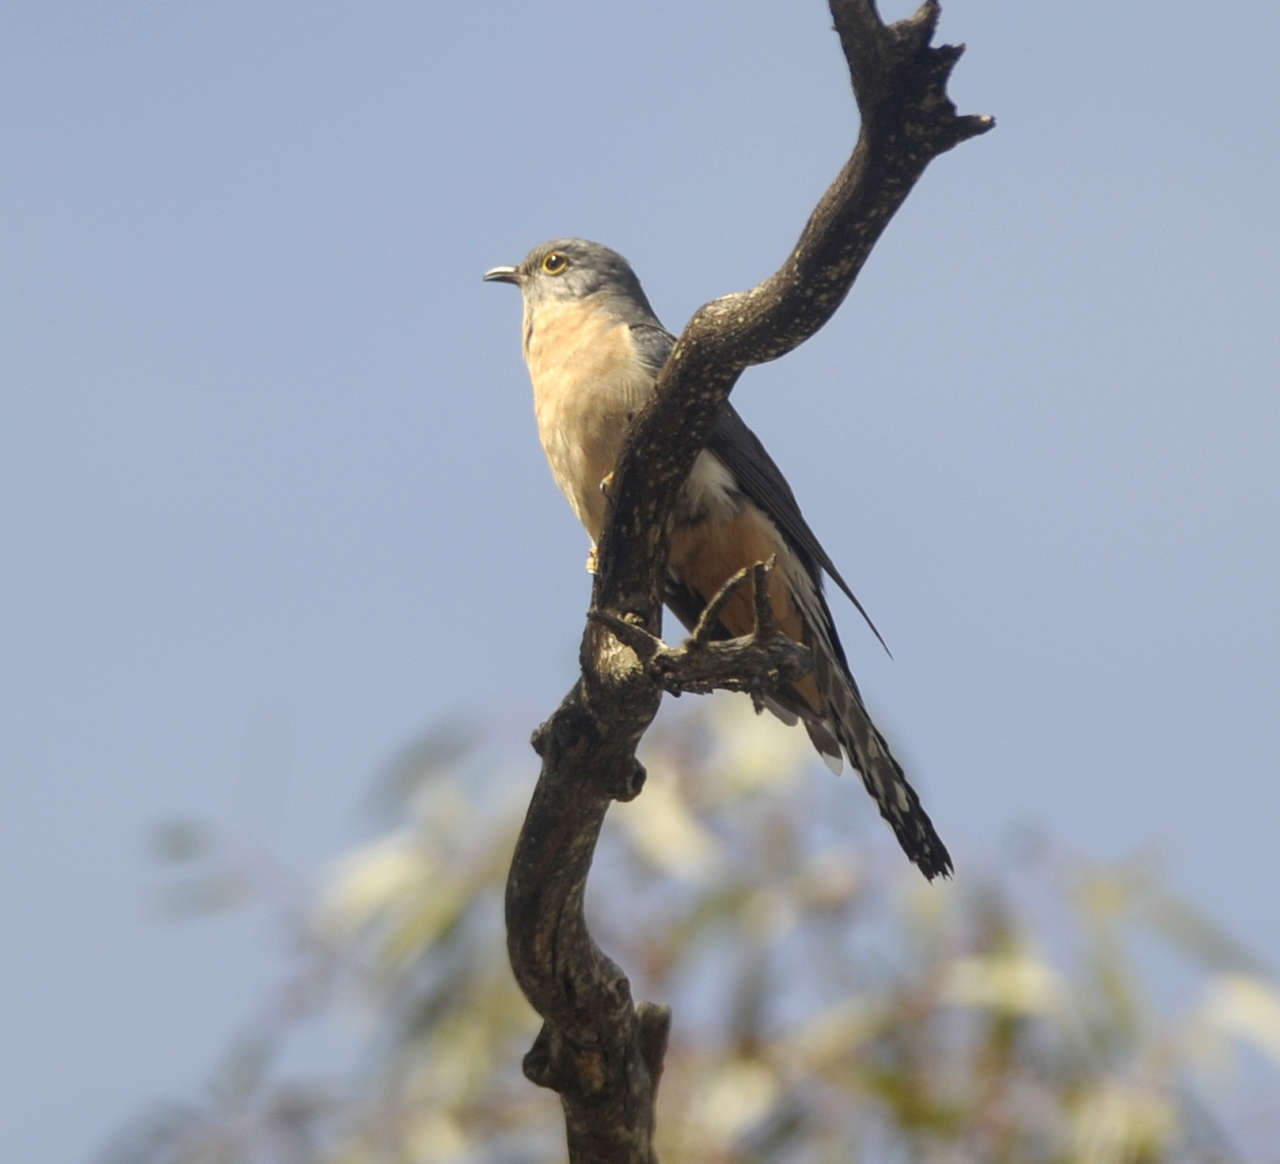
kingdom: Animalia
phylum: Chordata
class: Aves
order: Cuculiformes
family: Cuculidae
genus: Cacomantis
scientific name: Cacomantis flabelliformis
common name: Fan-tailed cuckoo
